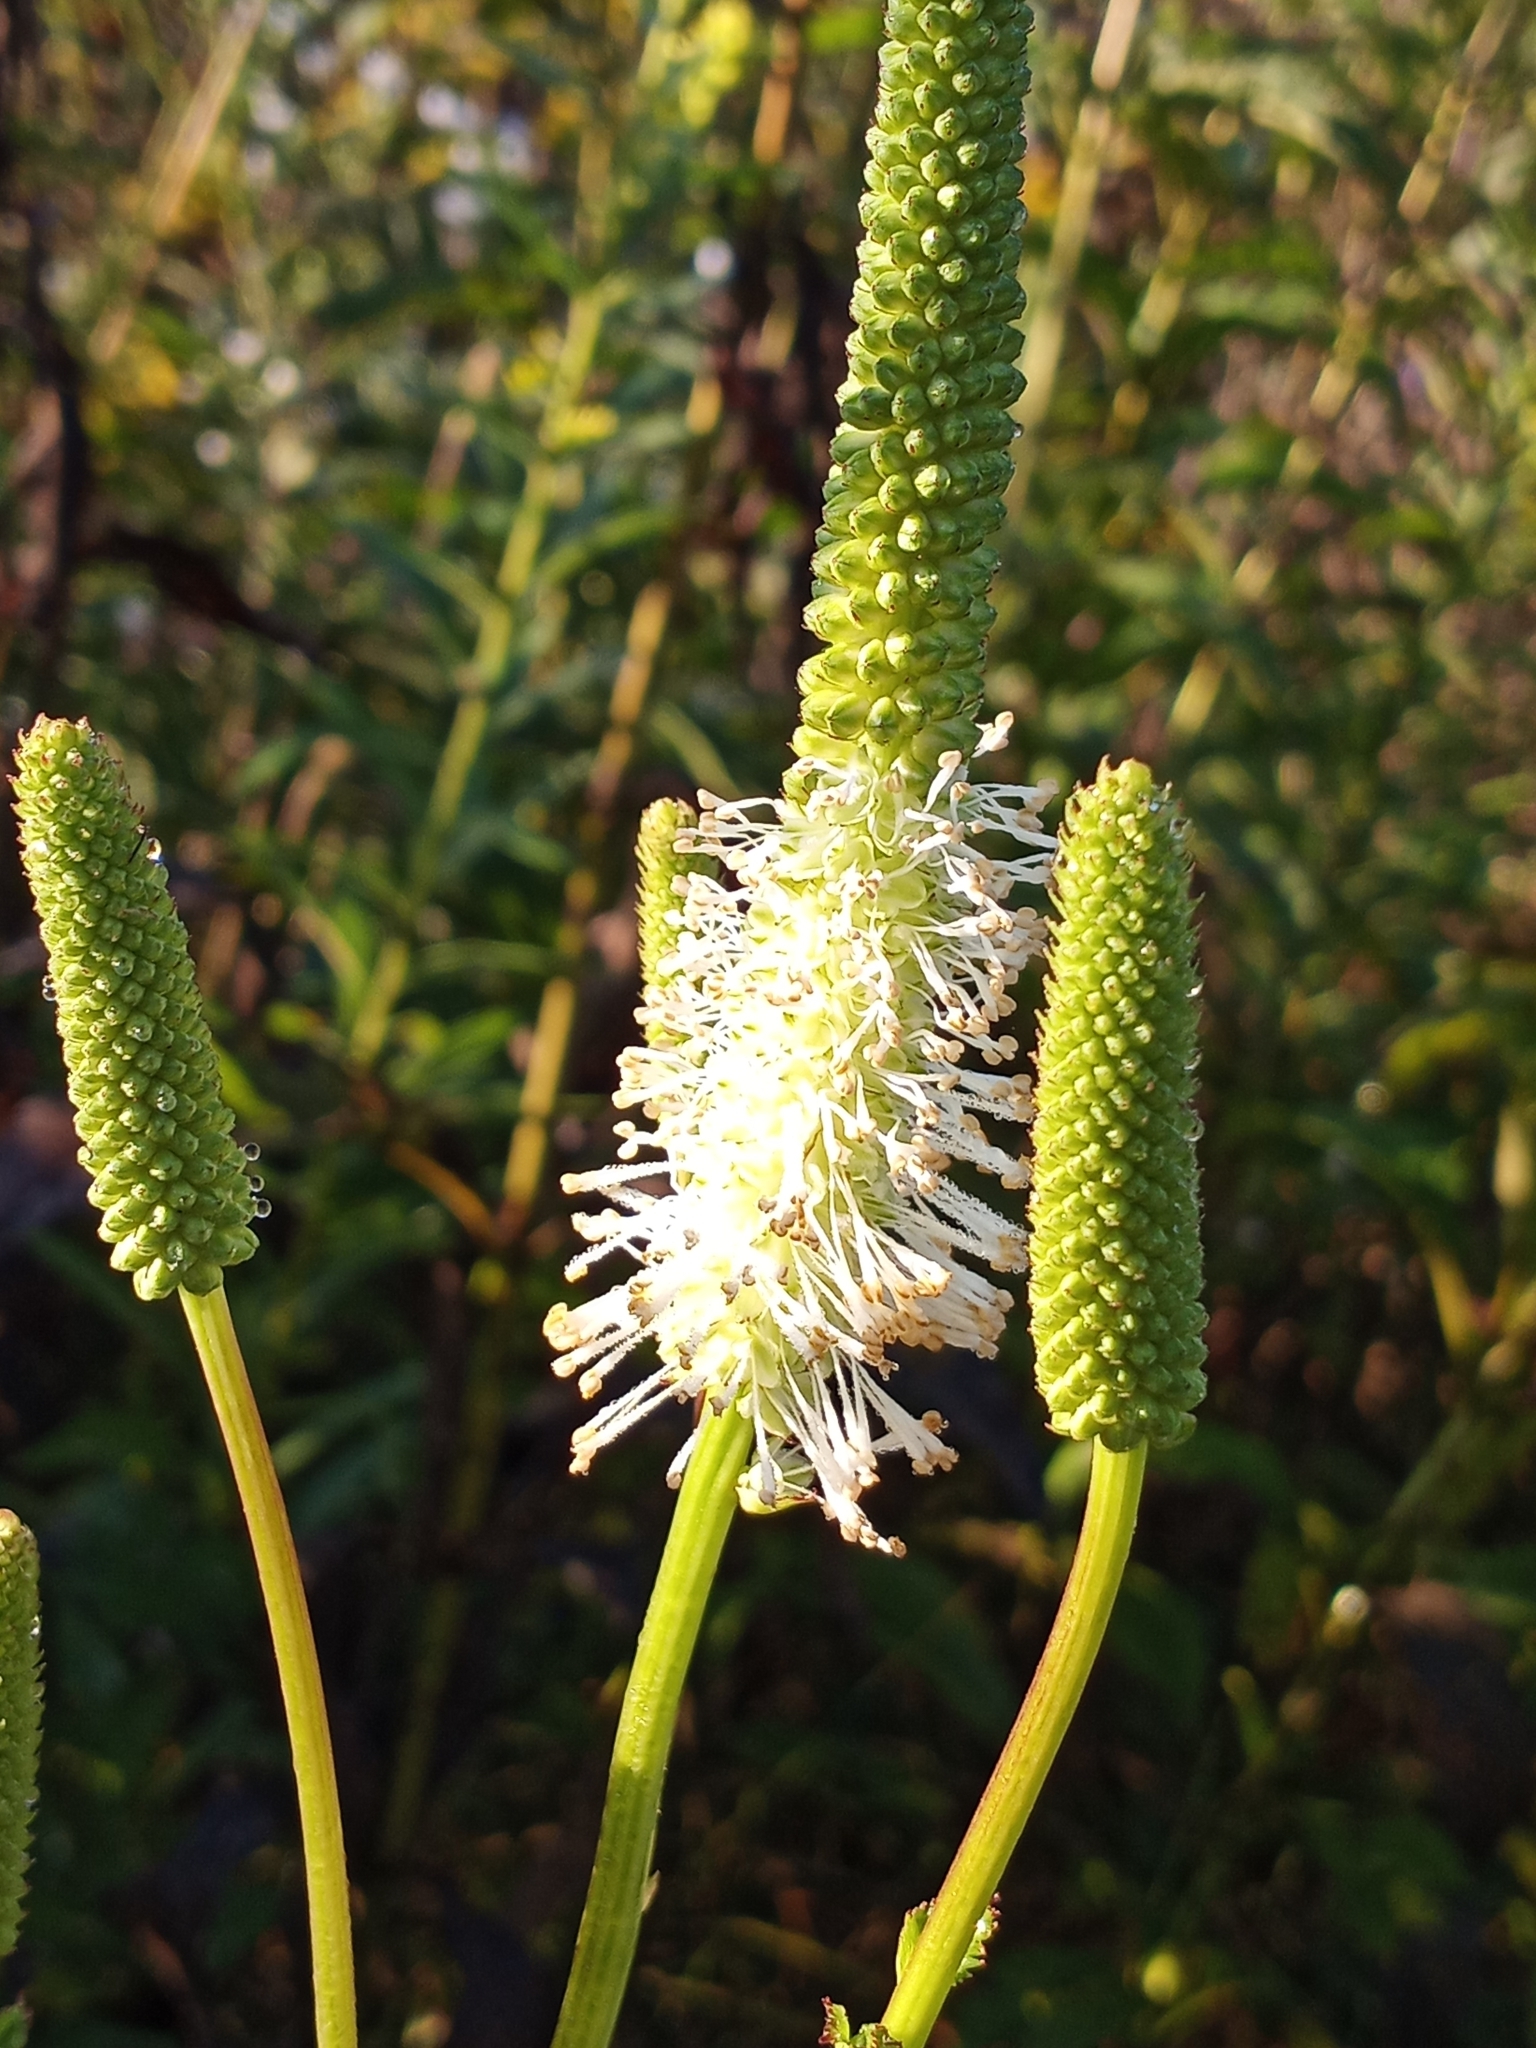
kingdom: Plantae
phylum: Tracheophyta
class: Magnoliopsida
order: Rosales
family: Rosaceae
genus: Sanguisorba
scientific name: Sanguisorba canadensis
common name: White burnet
